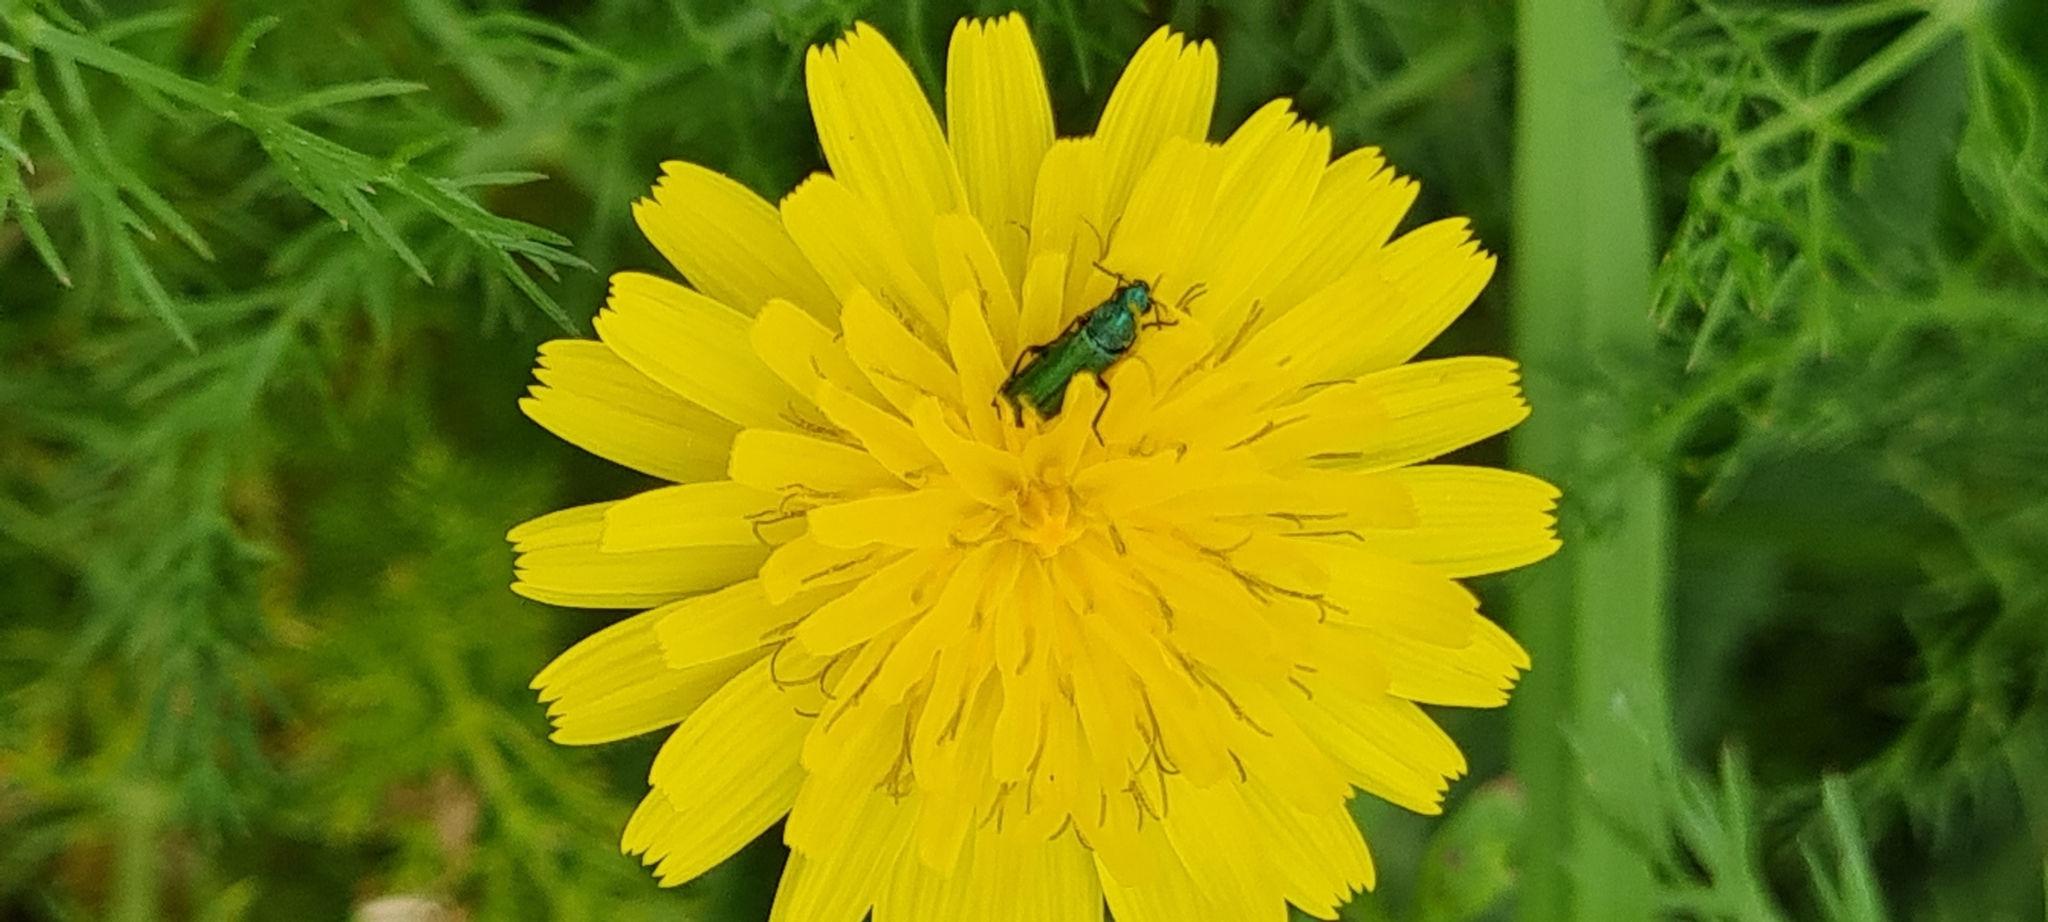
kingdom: Animalia
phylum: Arthropoda
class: Insecta
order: Coleoptera
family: Dasytidae
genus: Psilothrix
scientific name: Psilothrix viridicoerulea
